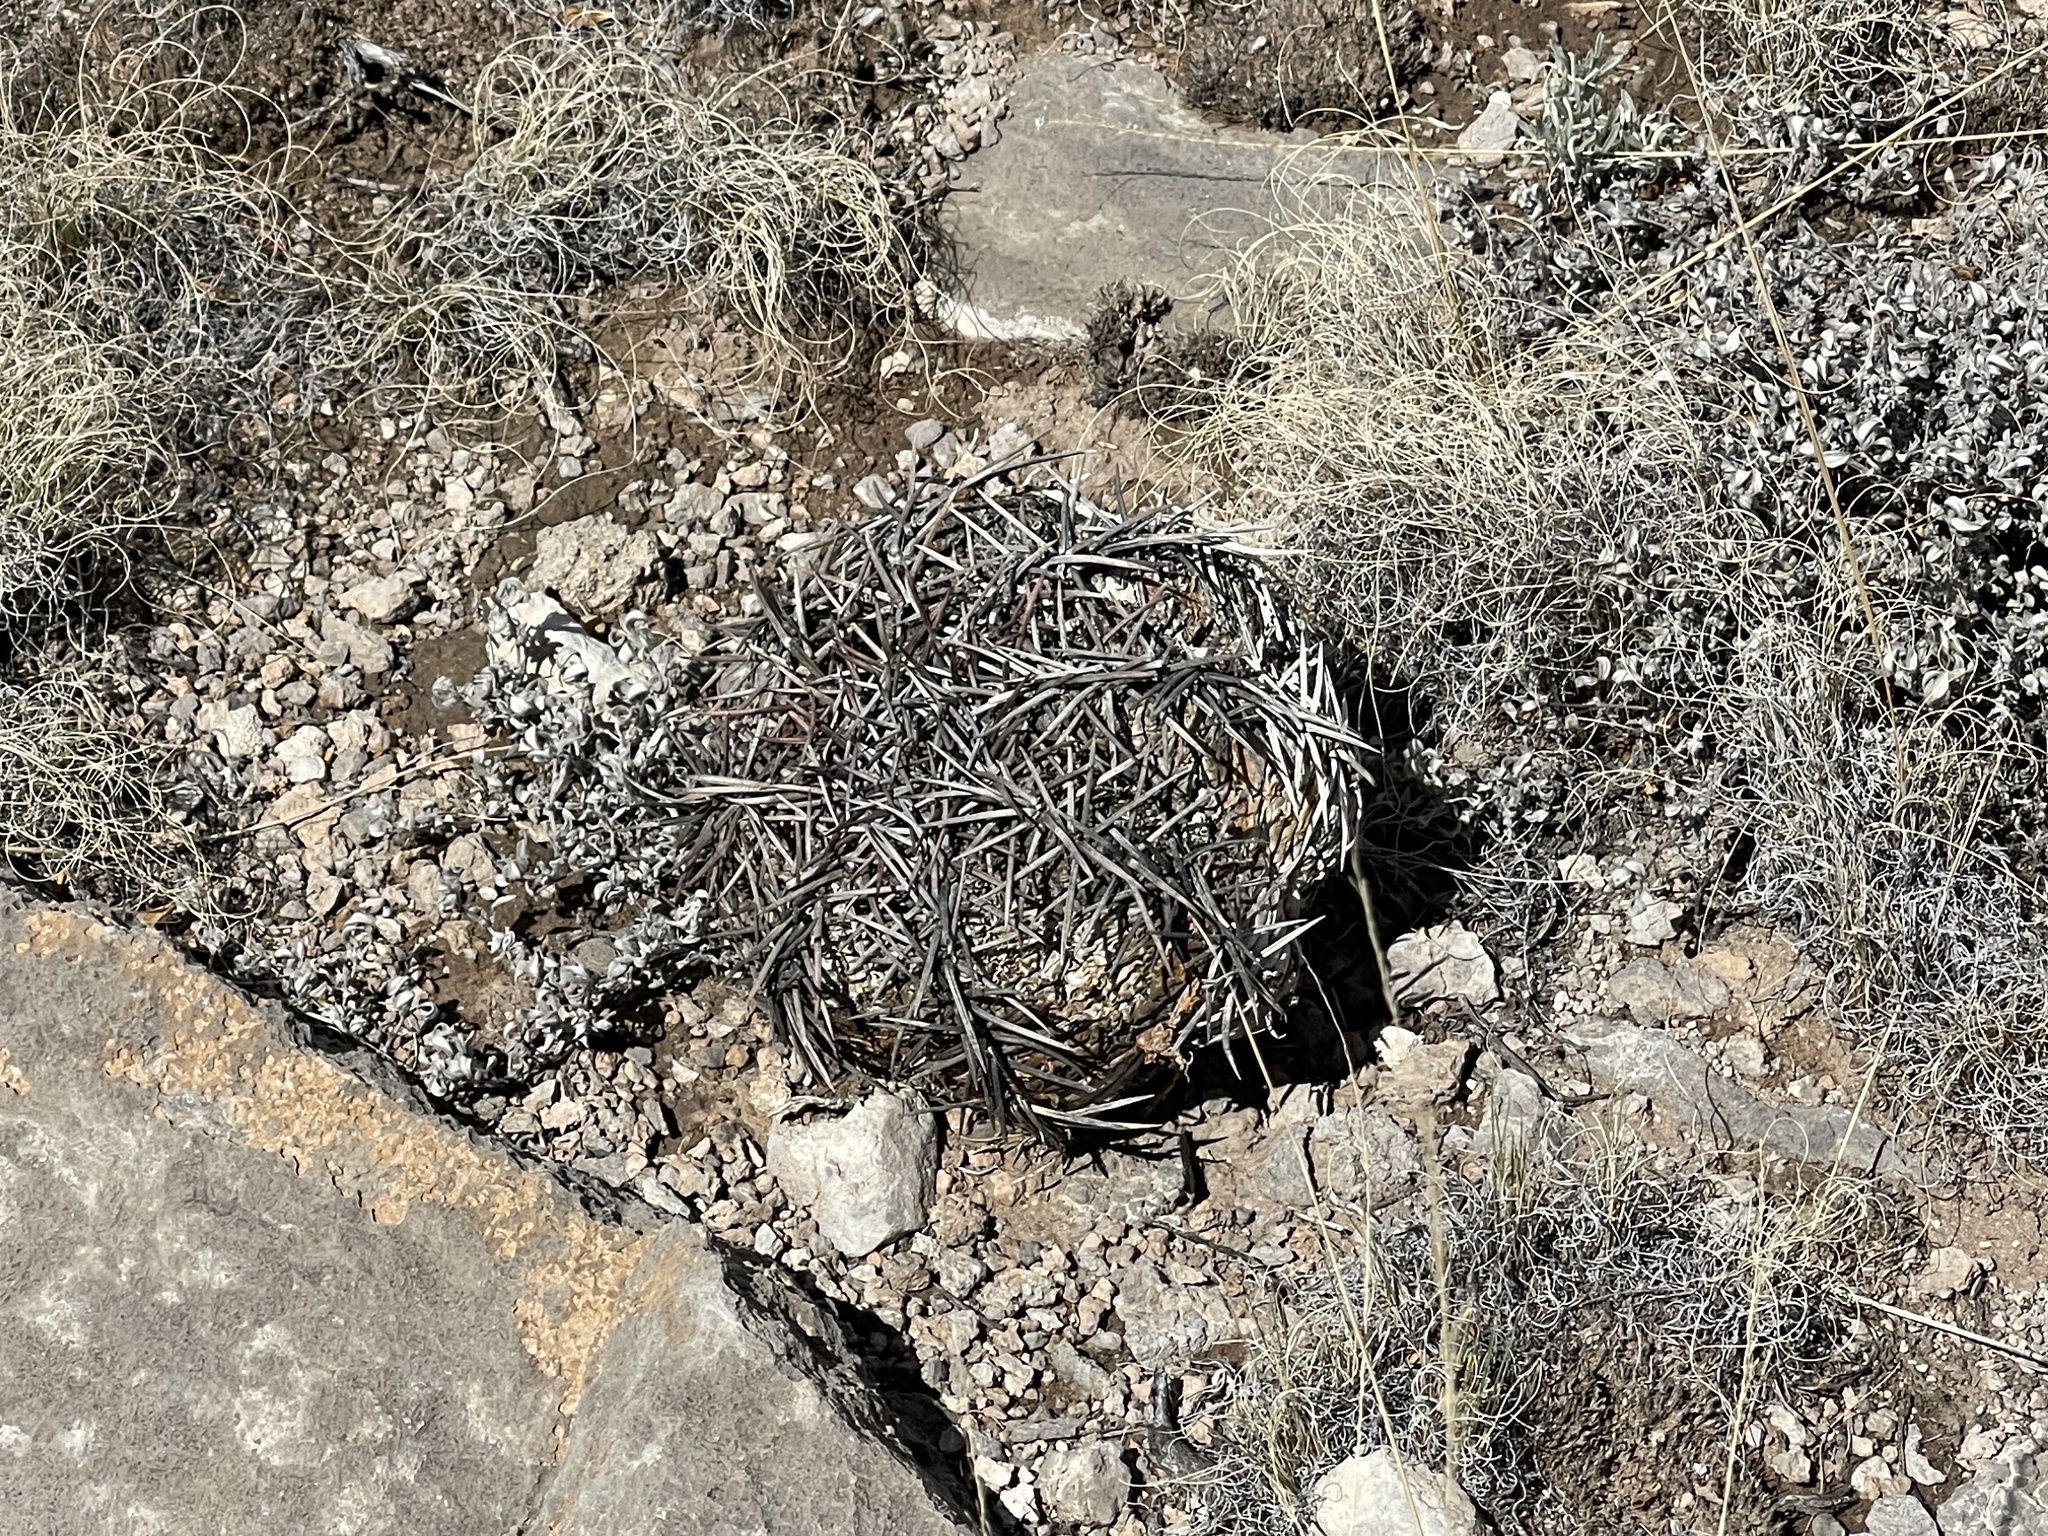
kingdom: Plantae
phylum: Tracheophyta
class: Magnoliopsida
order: Caryophyllales
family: Cactaceae
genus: Echinocactus
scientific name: Echinocactus horizonthalonius
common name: Devilshead
